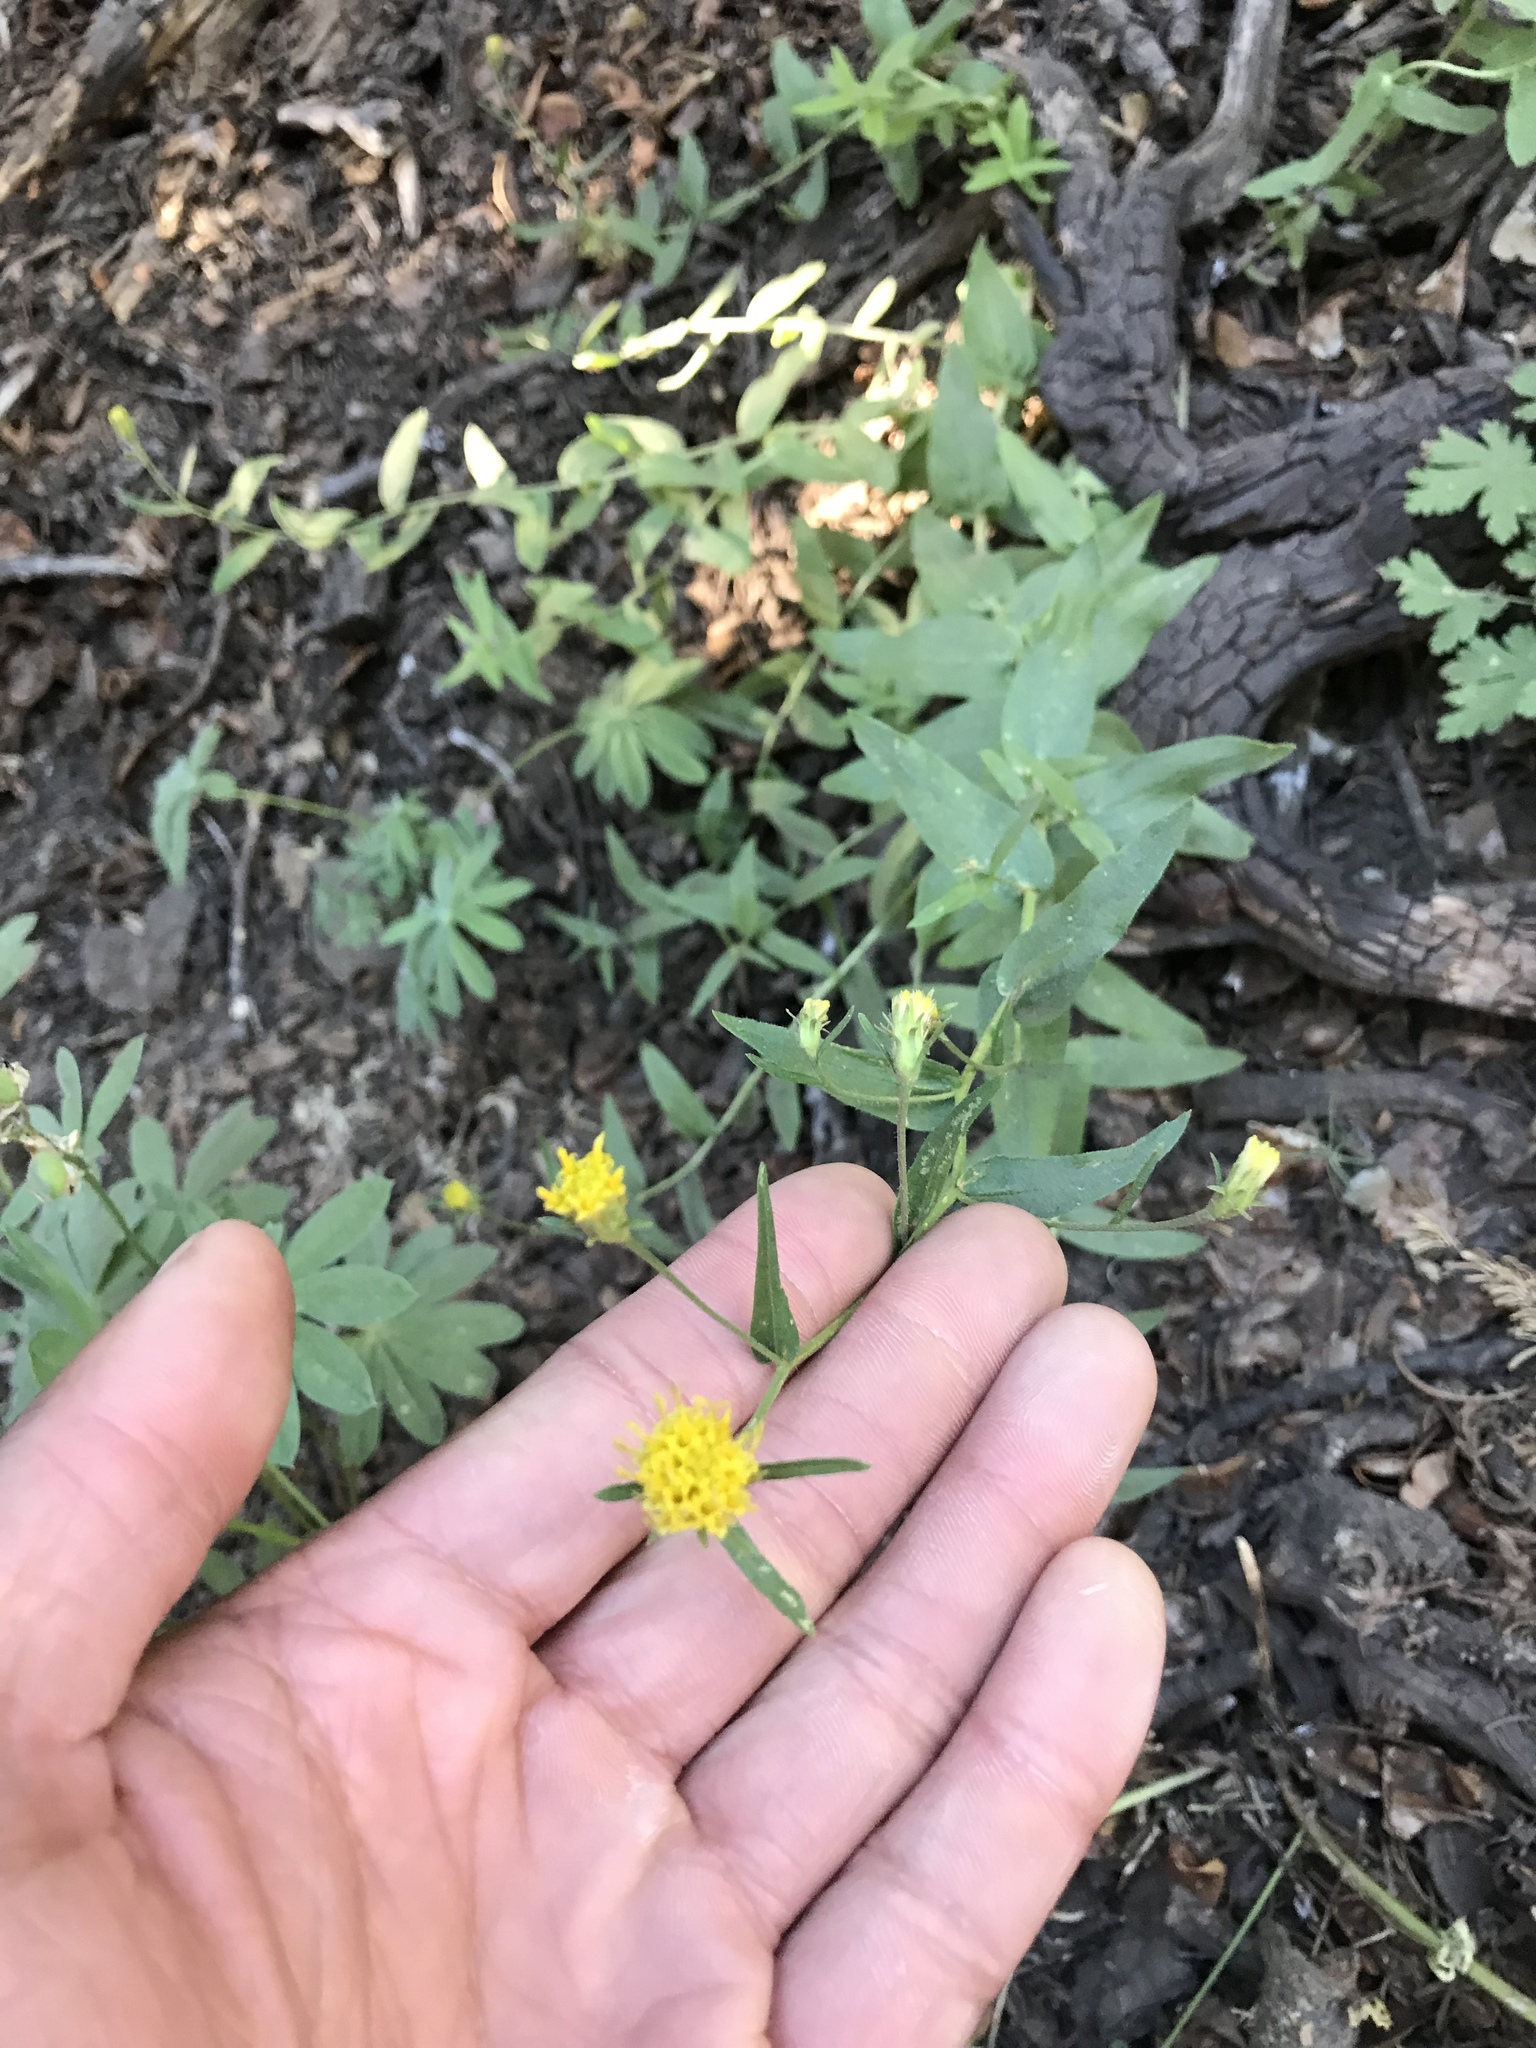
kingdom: Plantae
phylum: Tracheophyta
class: Magnoliopsida
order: Asterales
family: Asteraceae
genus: Eucephalus
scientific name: Eucephalus breweri
